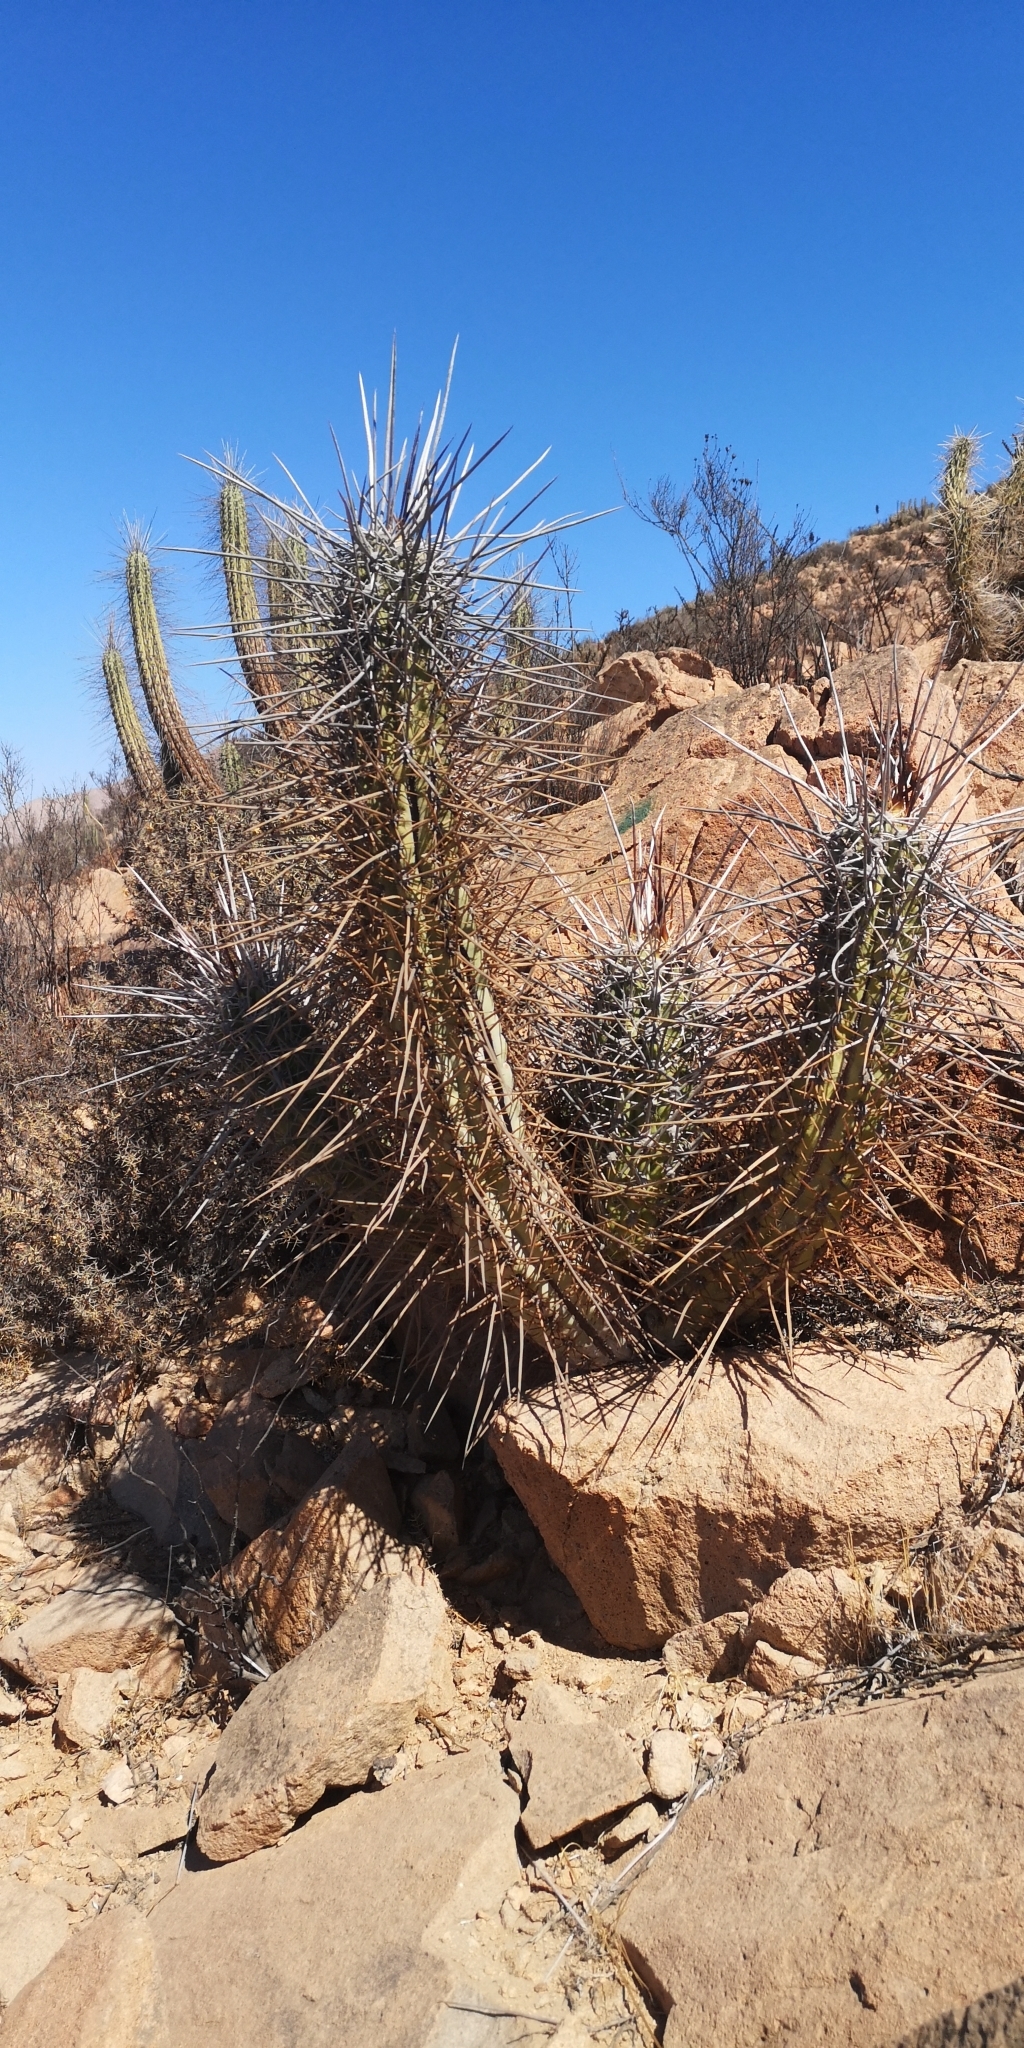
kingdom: Plantae
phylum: Tracheophyta
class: Magnoliopsida
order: Caryophyllales
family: Cactaceae
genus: Leucostele
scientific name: Leucostele deserticola
